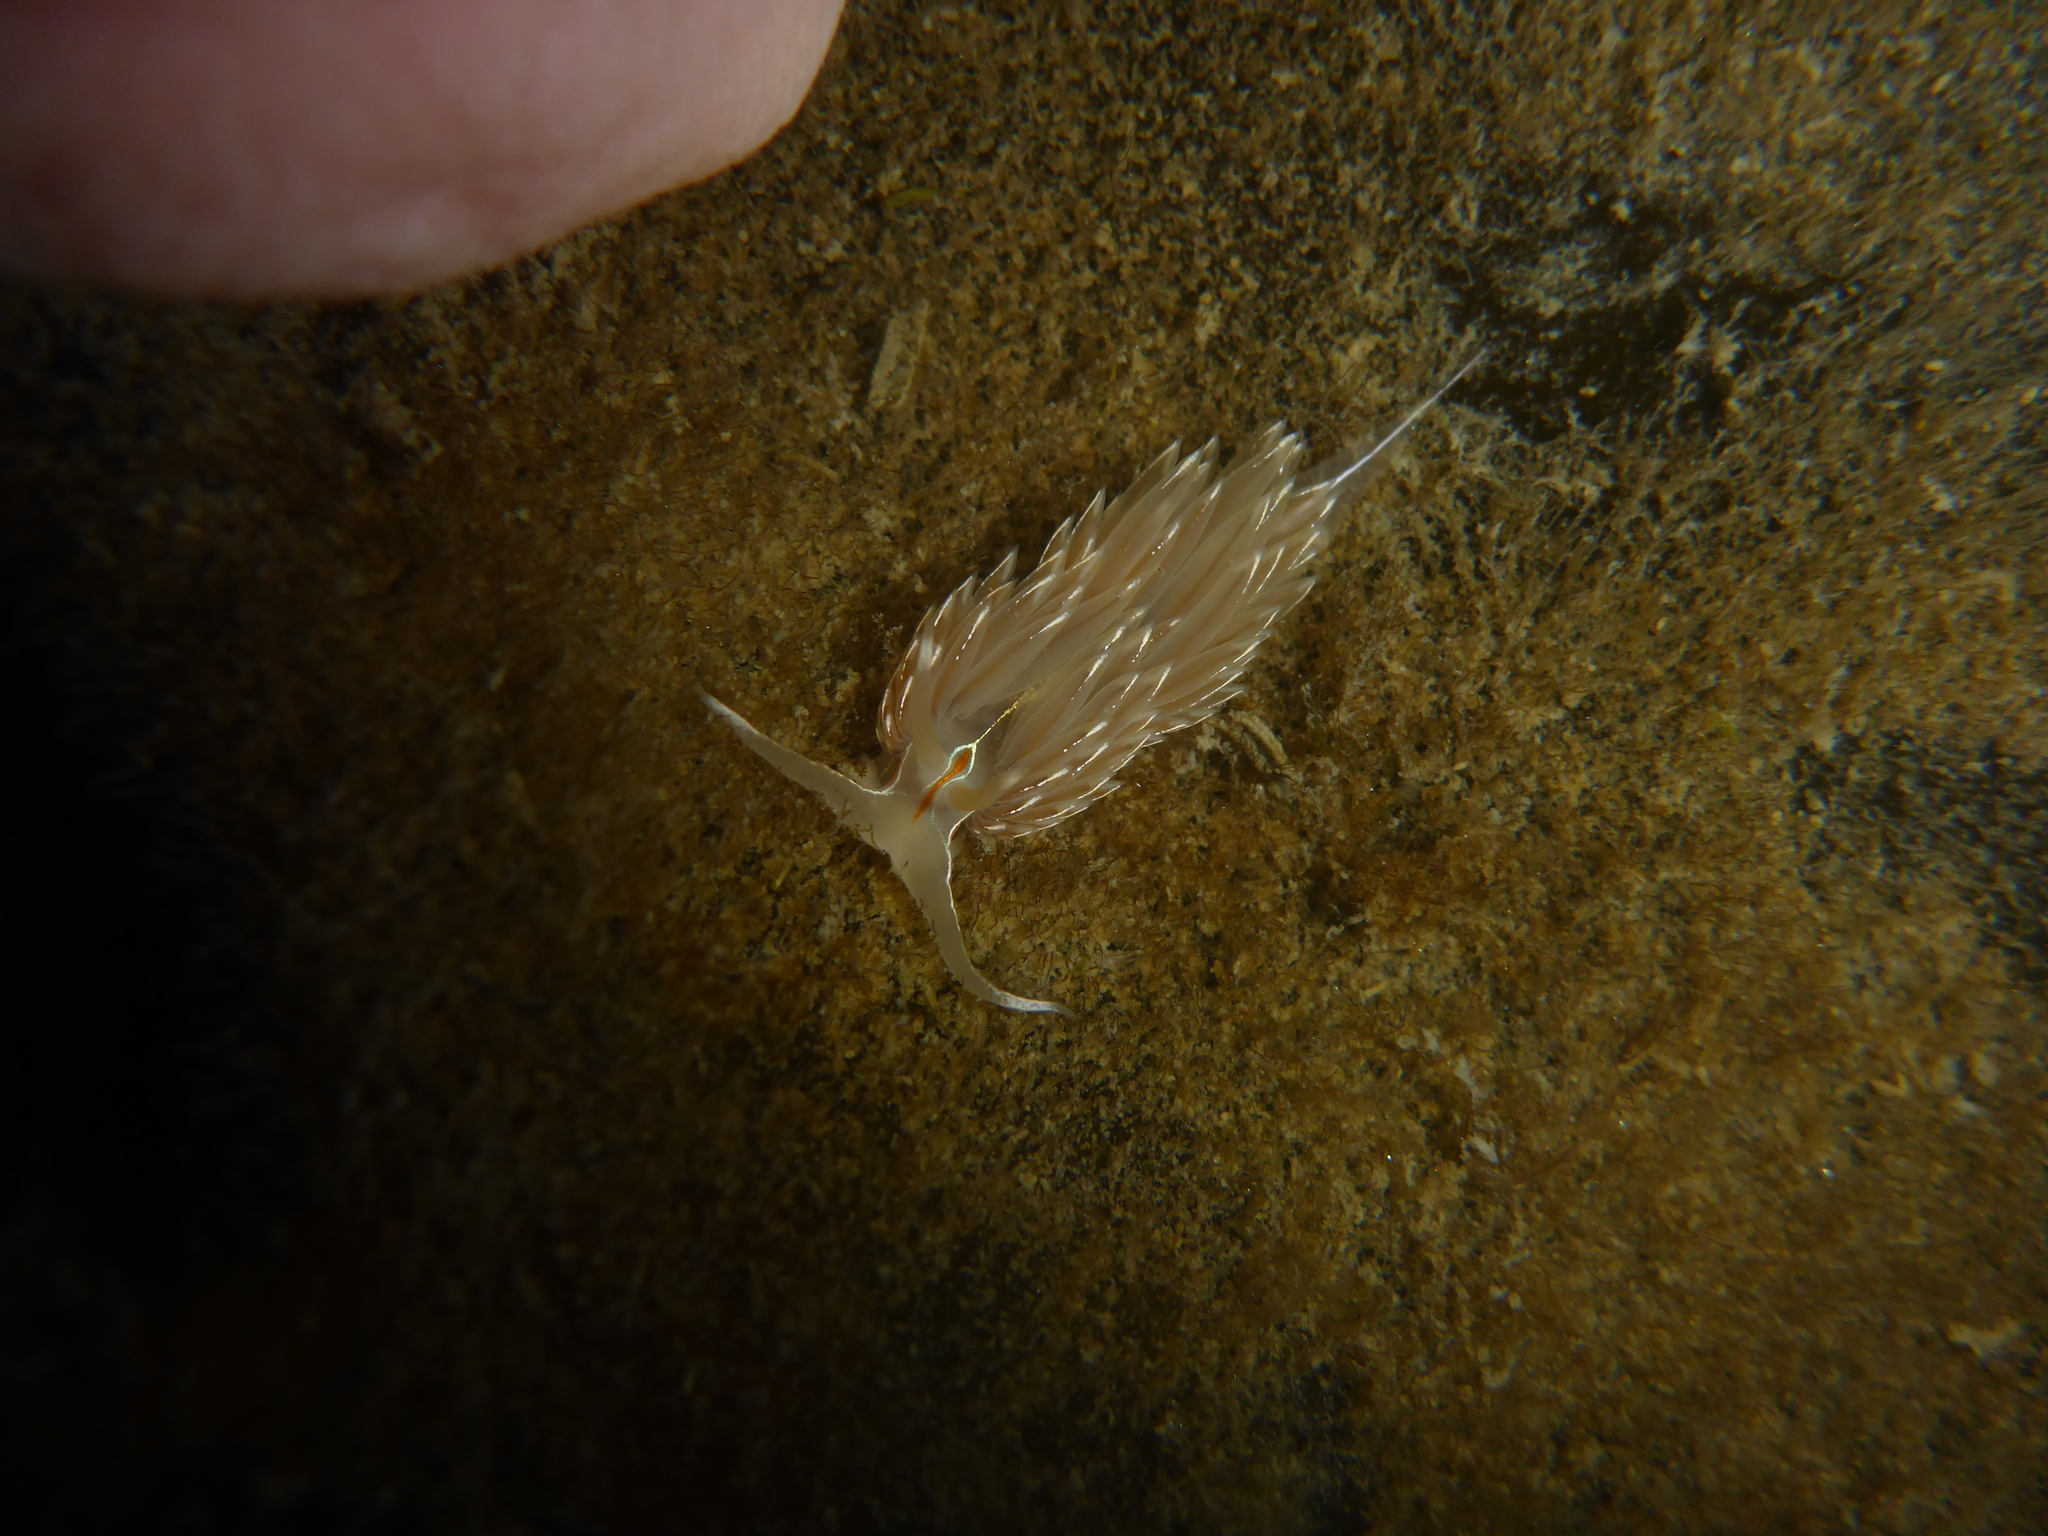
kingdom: Animalia
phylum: Mollusca
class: Gastropoda
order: Nudibranchia
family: Myrrhinidae
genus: Hermissenda
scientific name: Hermissenda crassicornis
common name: Hermissenda
